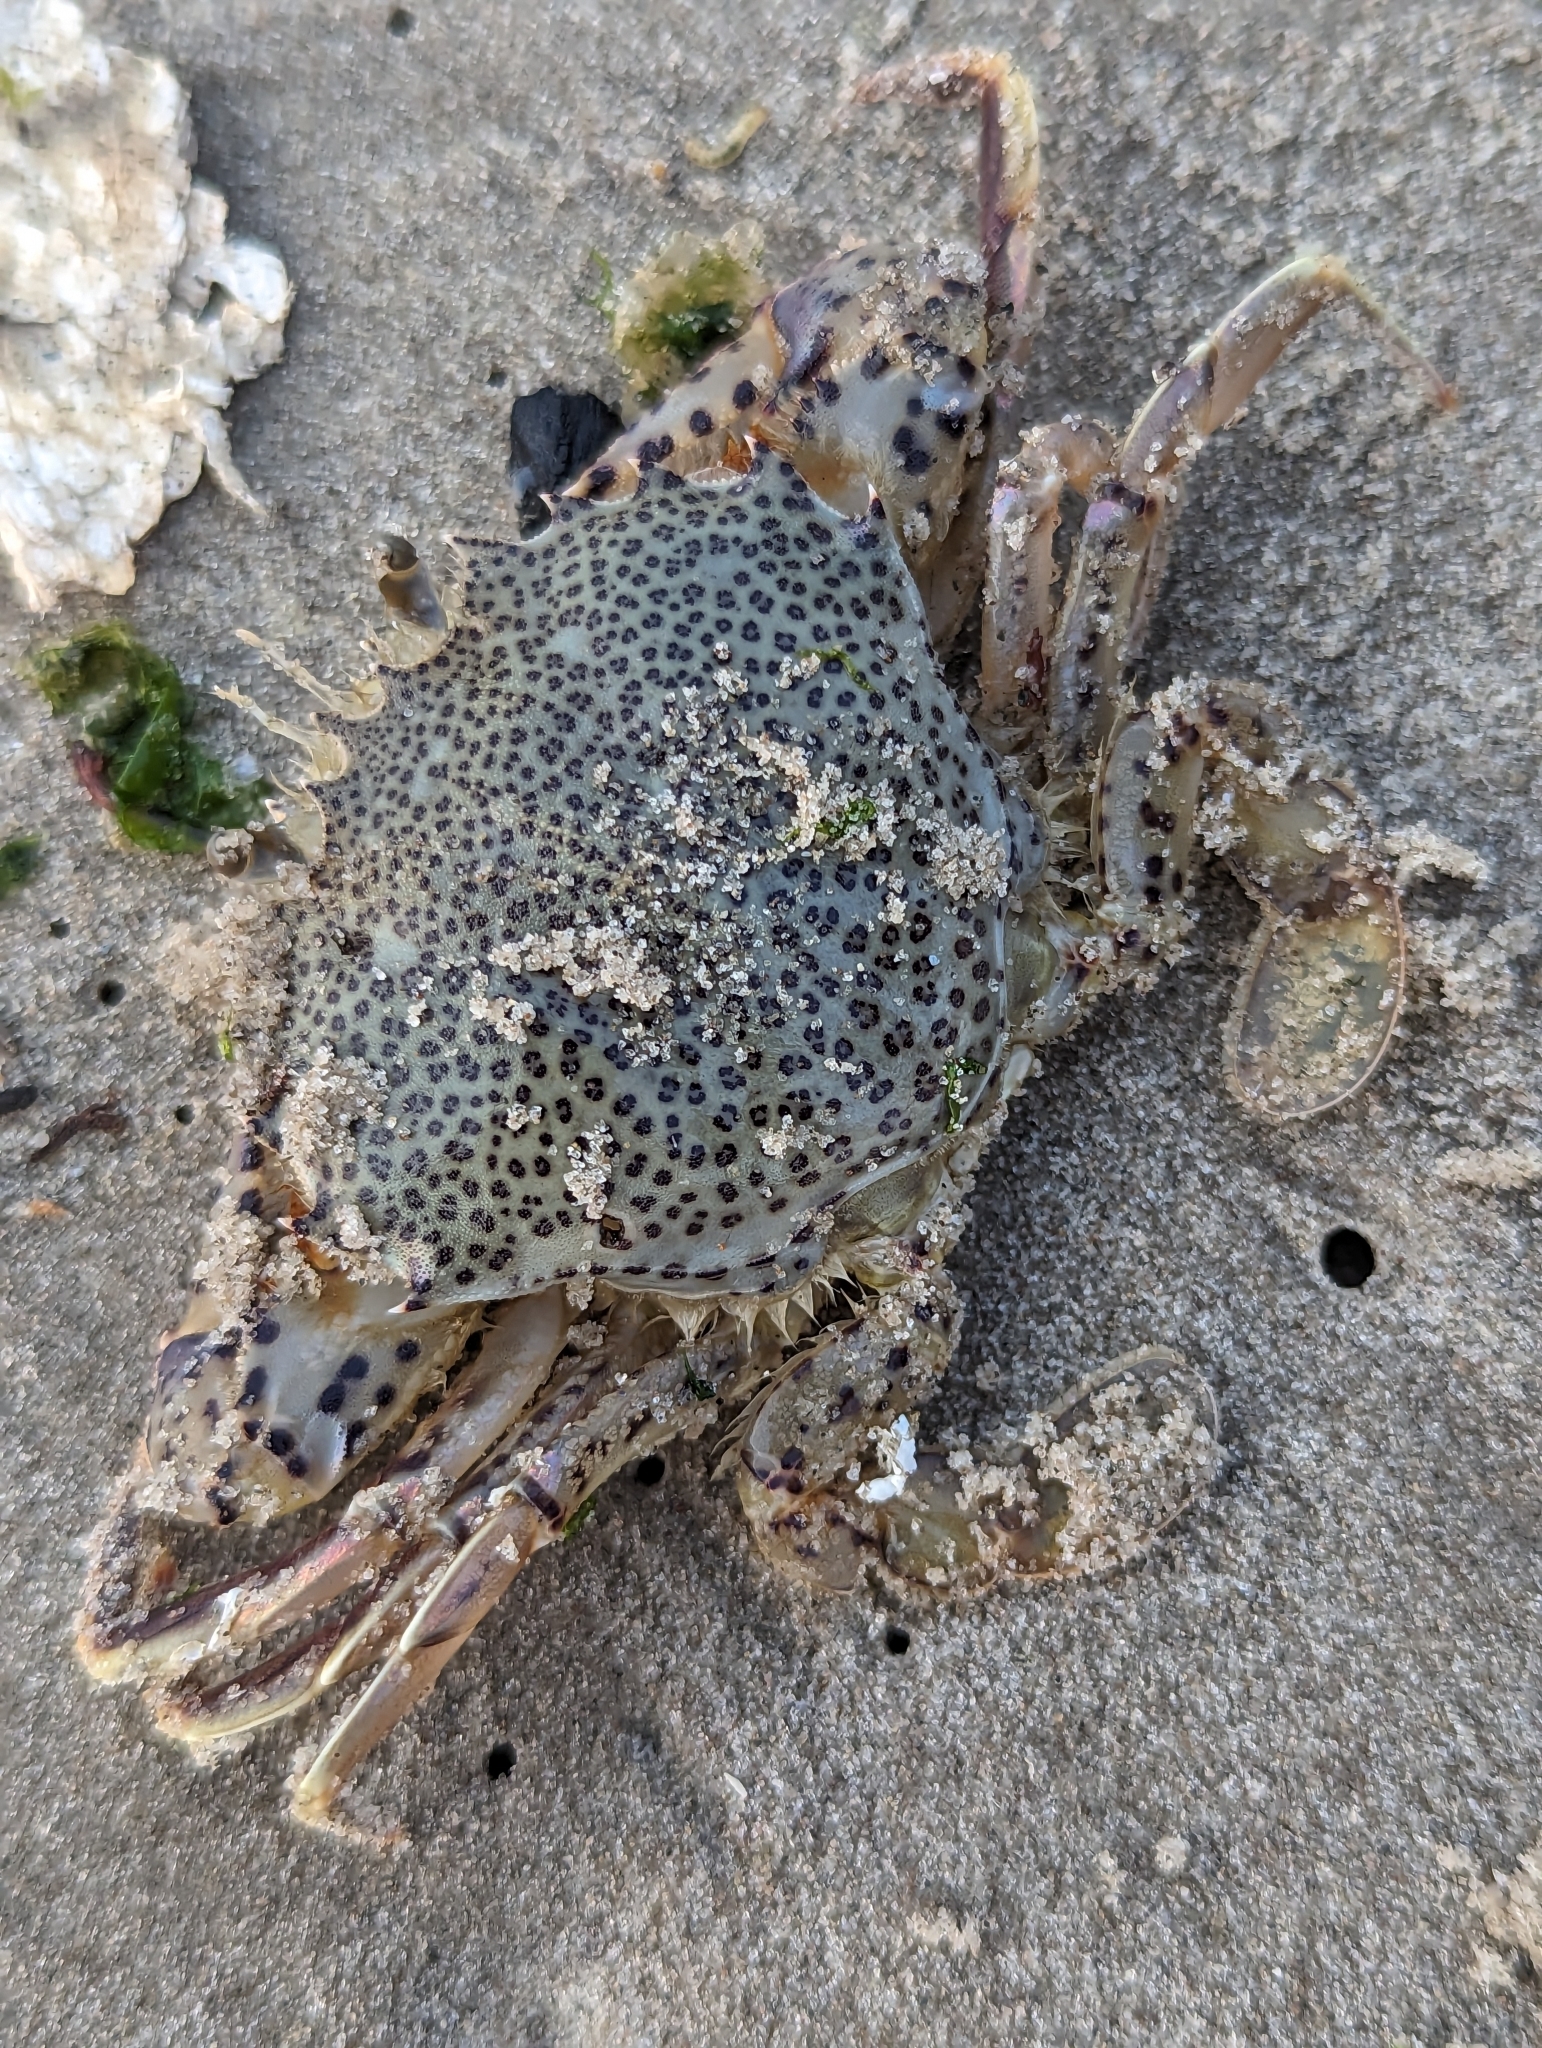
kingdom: Animalia
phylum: Arthropoda
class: Malacostraca
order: Decapoda
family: Ovalipidae
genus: Ovalipes
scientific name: Ovalipes ocellatus
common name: Lady crab
